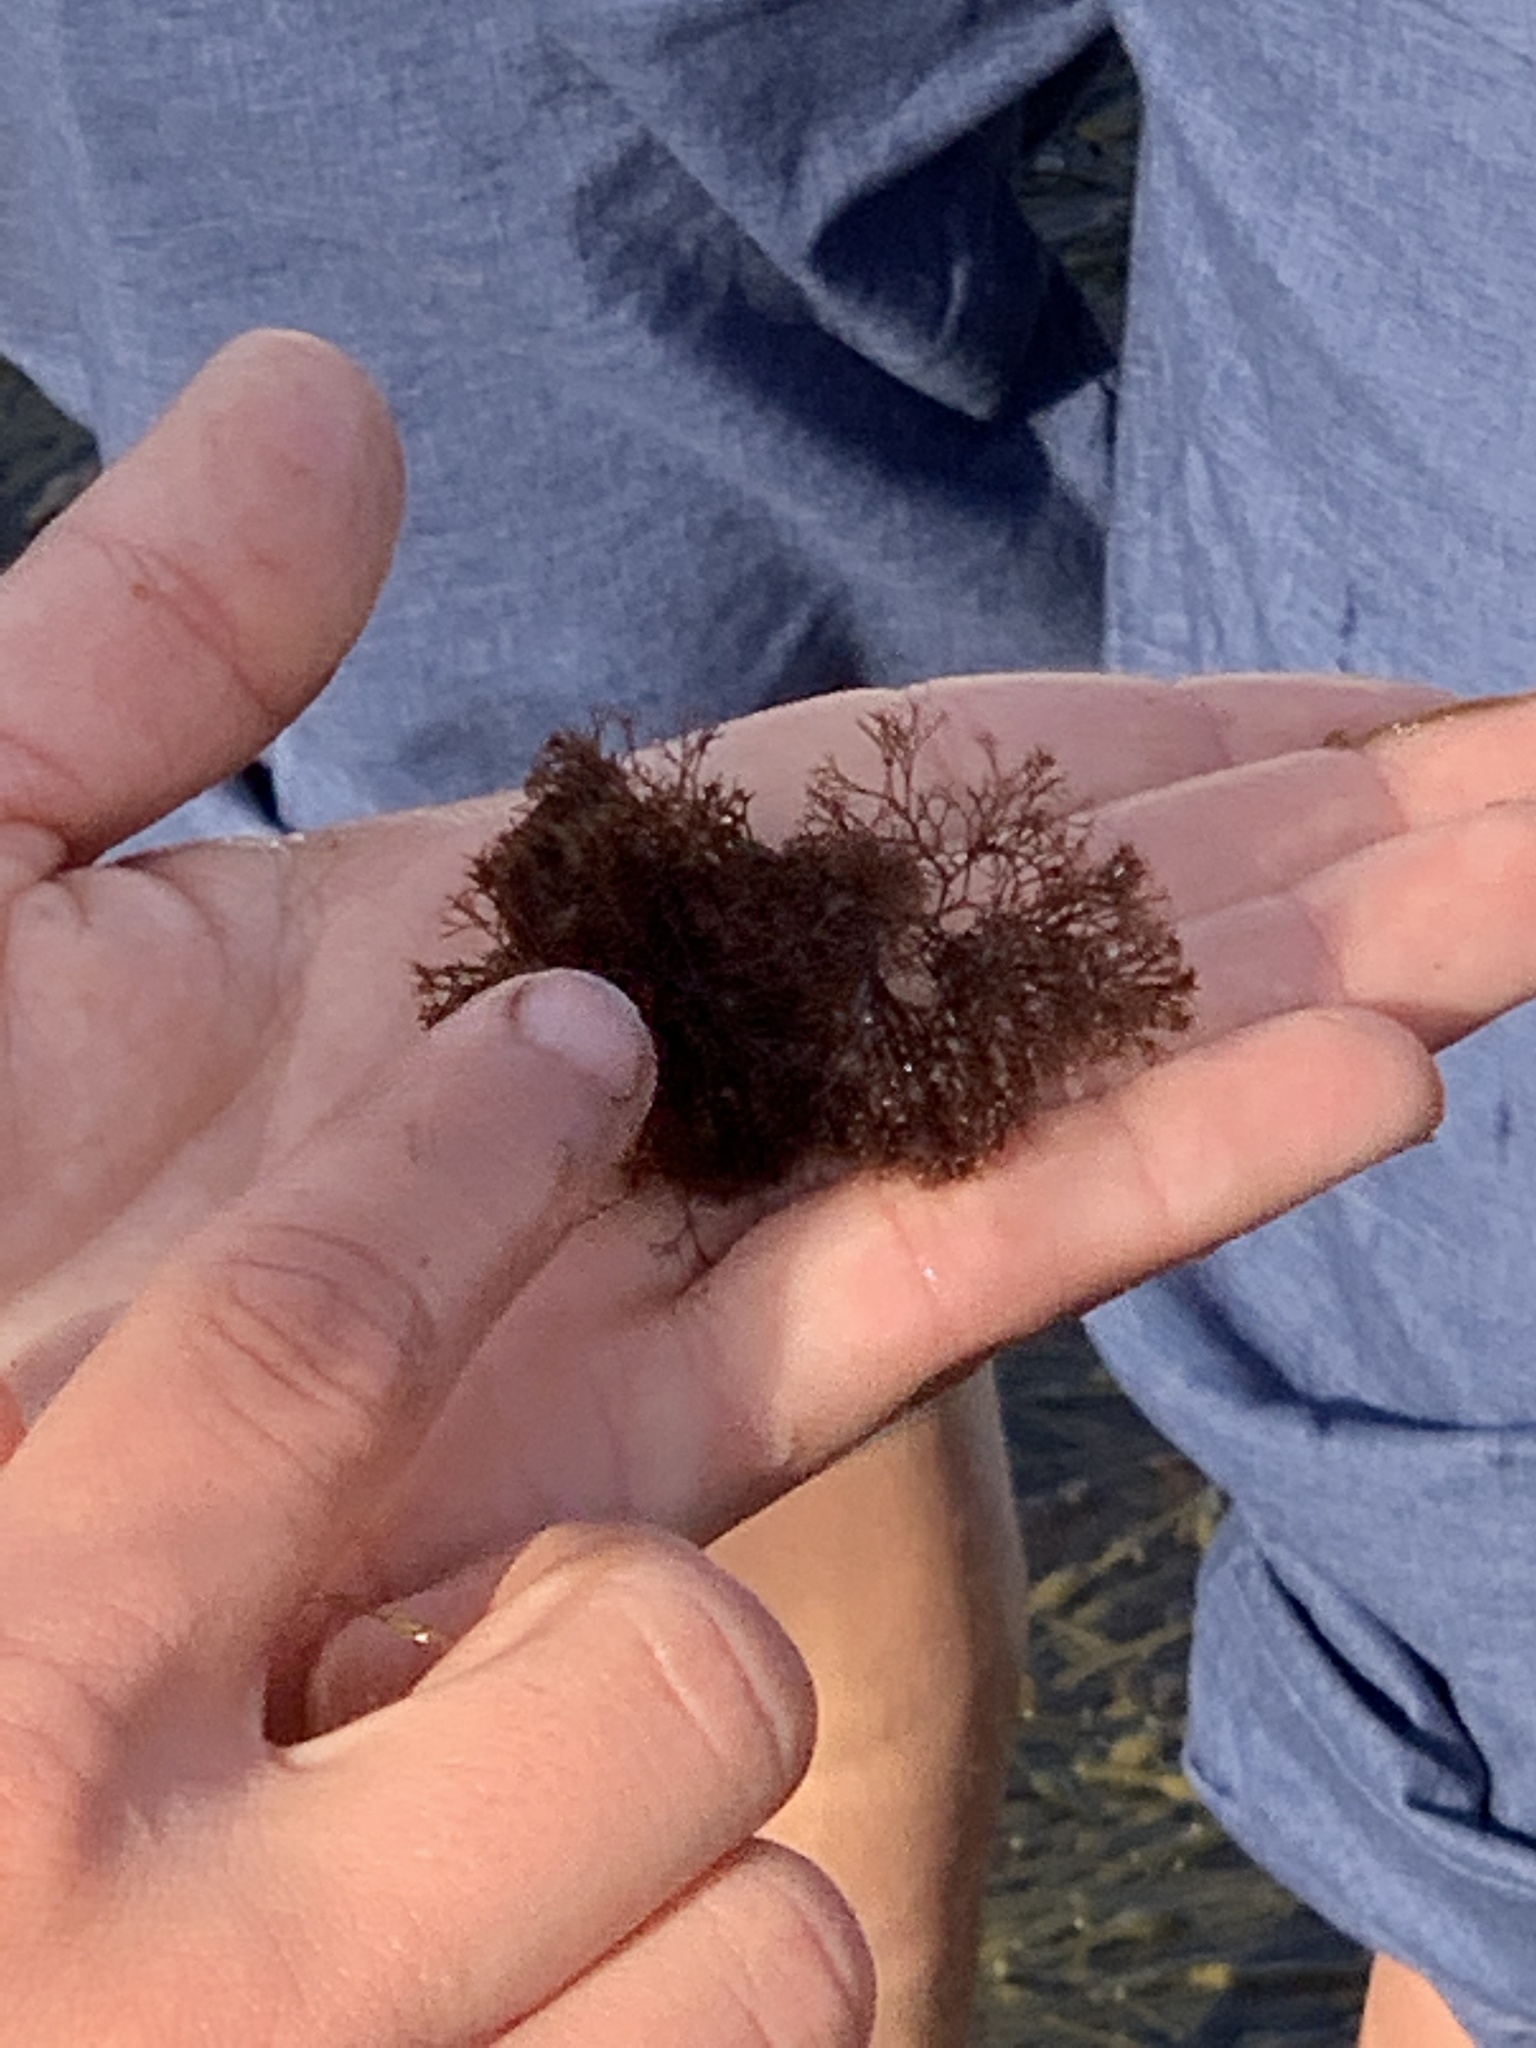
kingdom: Plantae
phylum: Rhodophyta
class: Florideophyceae
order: Ceramiales
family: Rhodomelaceae
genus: Vertebrata
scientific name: Vertebrata lanosa
